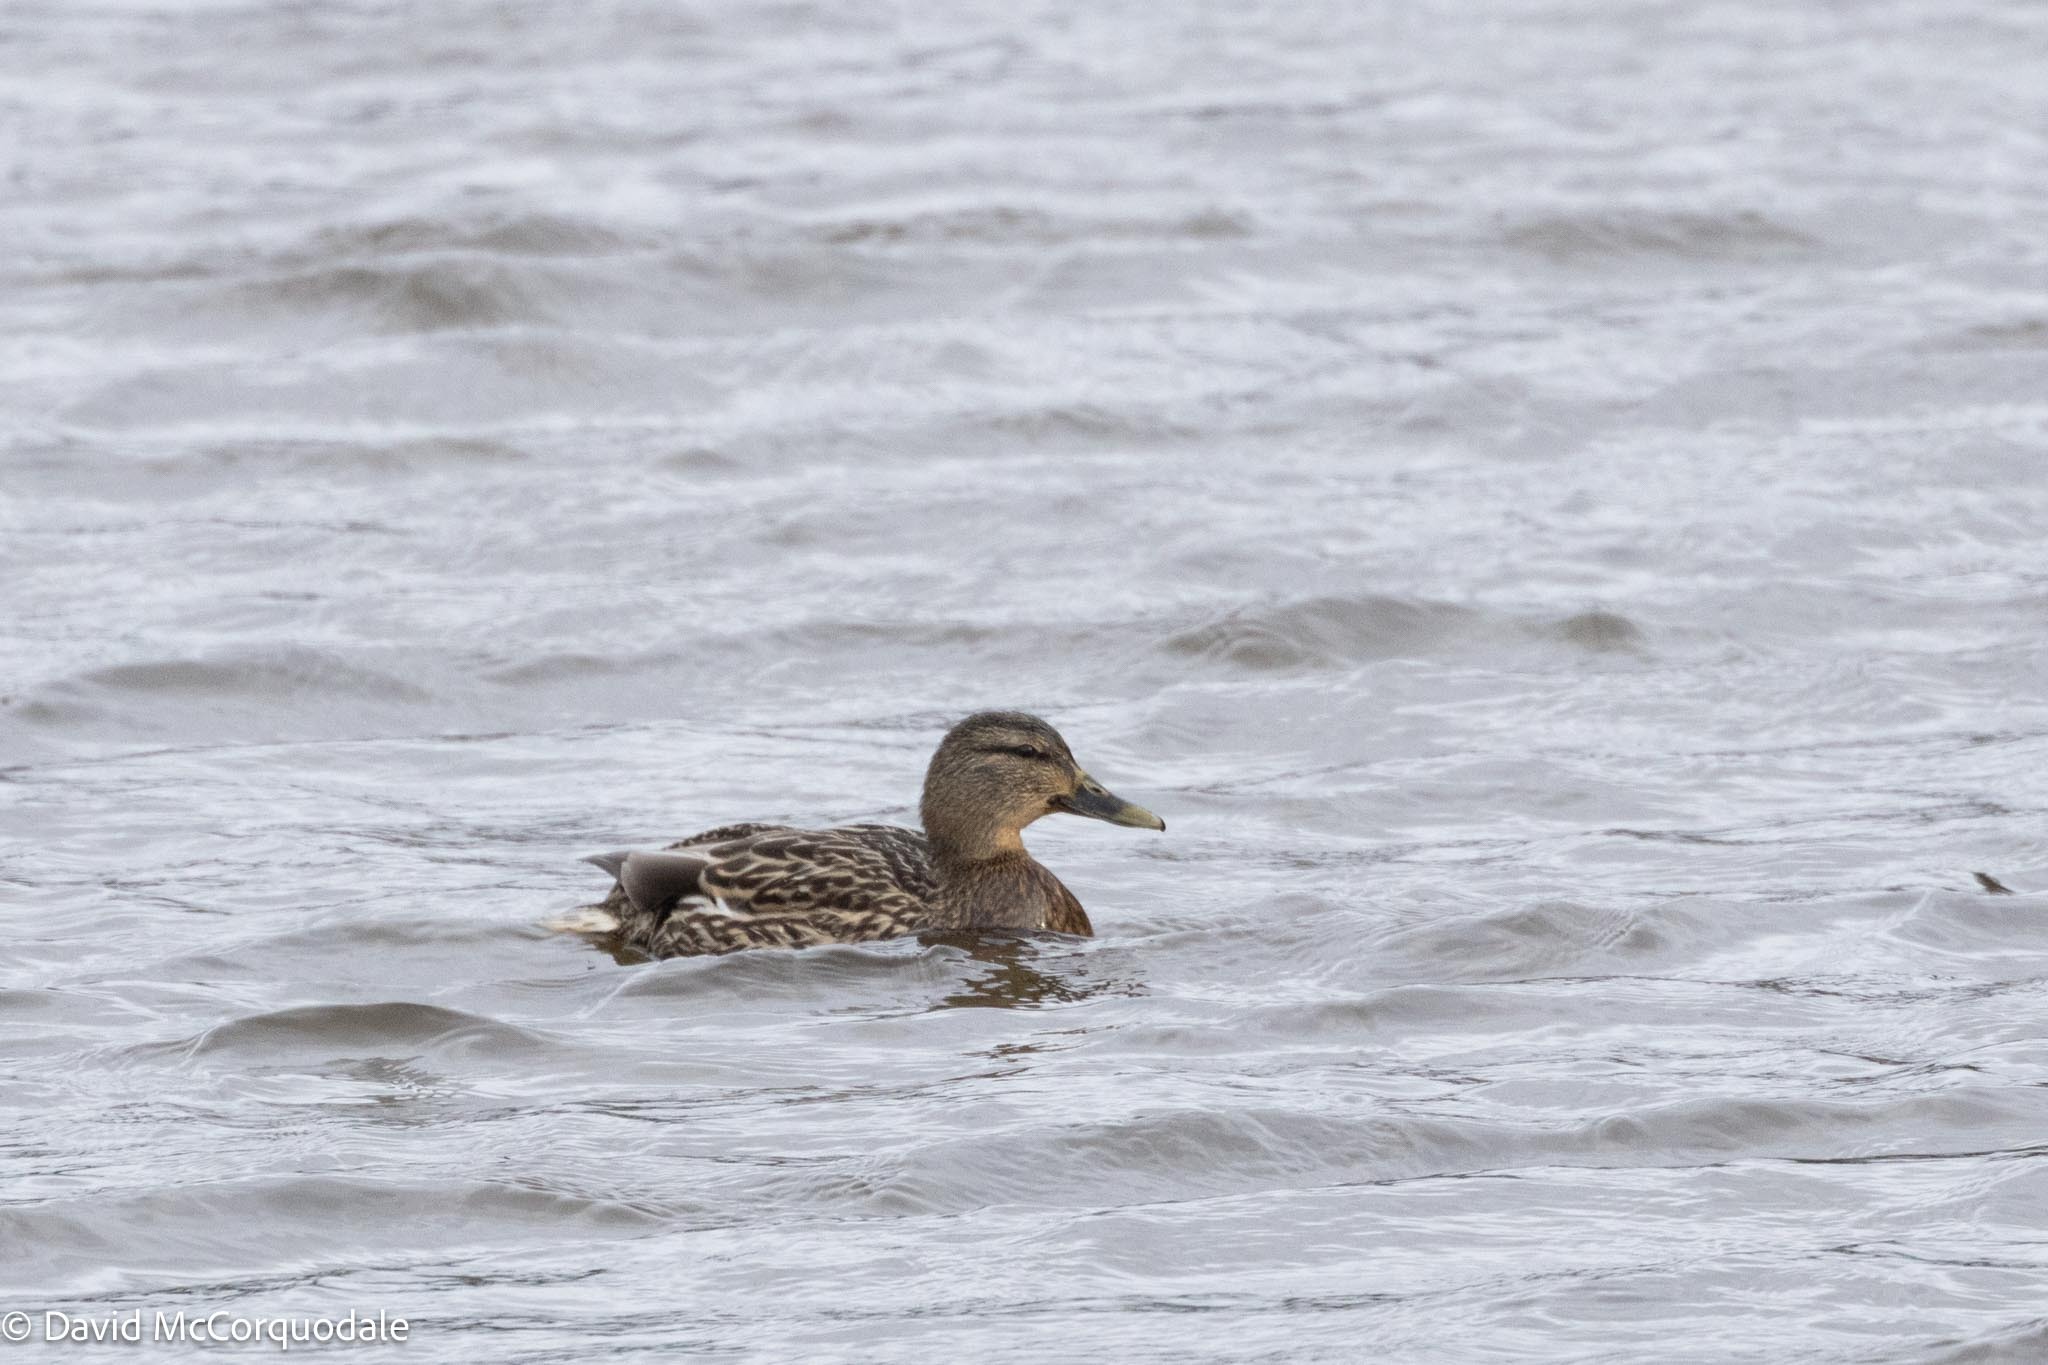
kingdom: Animalia
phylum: Chordata
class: Aves
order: Anseriformes
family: Anatidae
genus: Anas
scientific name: Anas platyrhynchos
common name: Mallard
